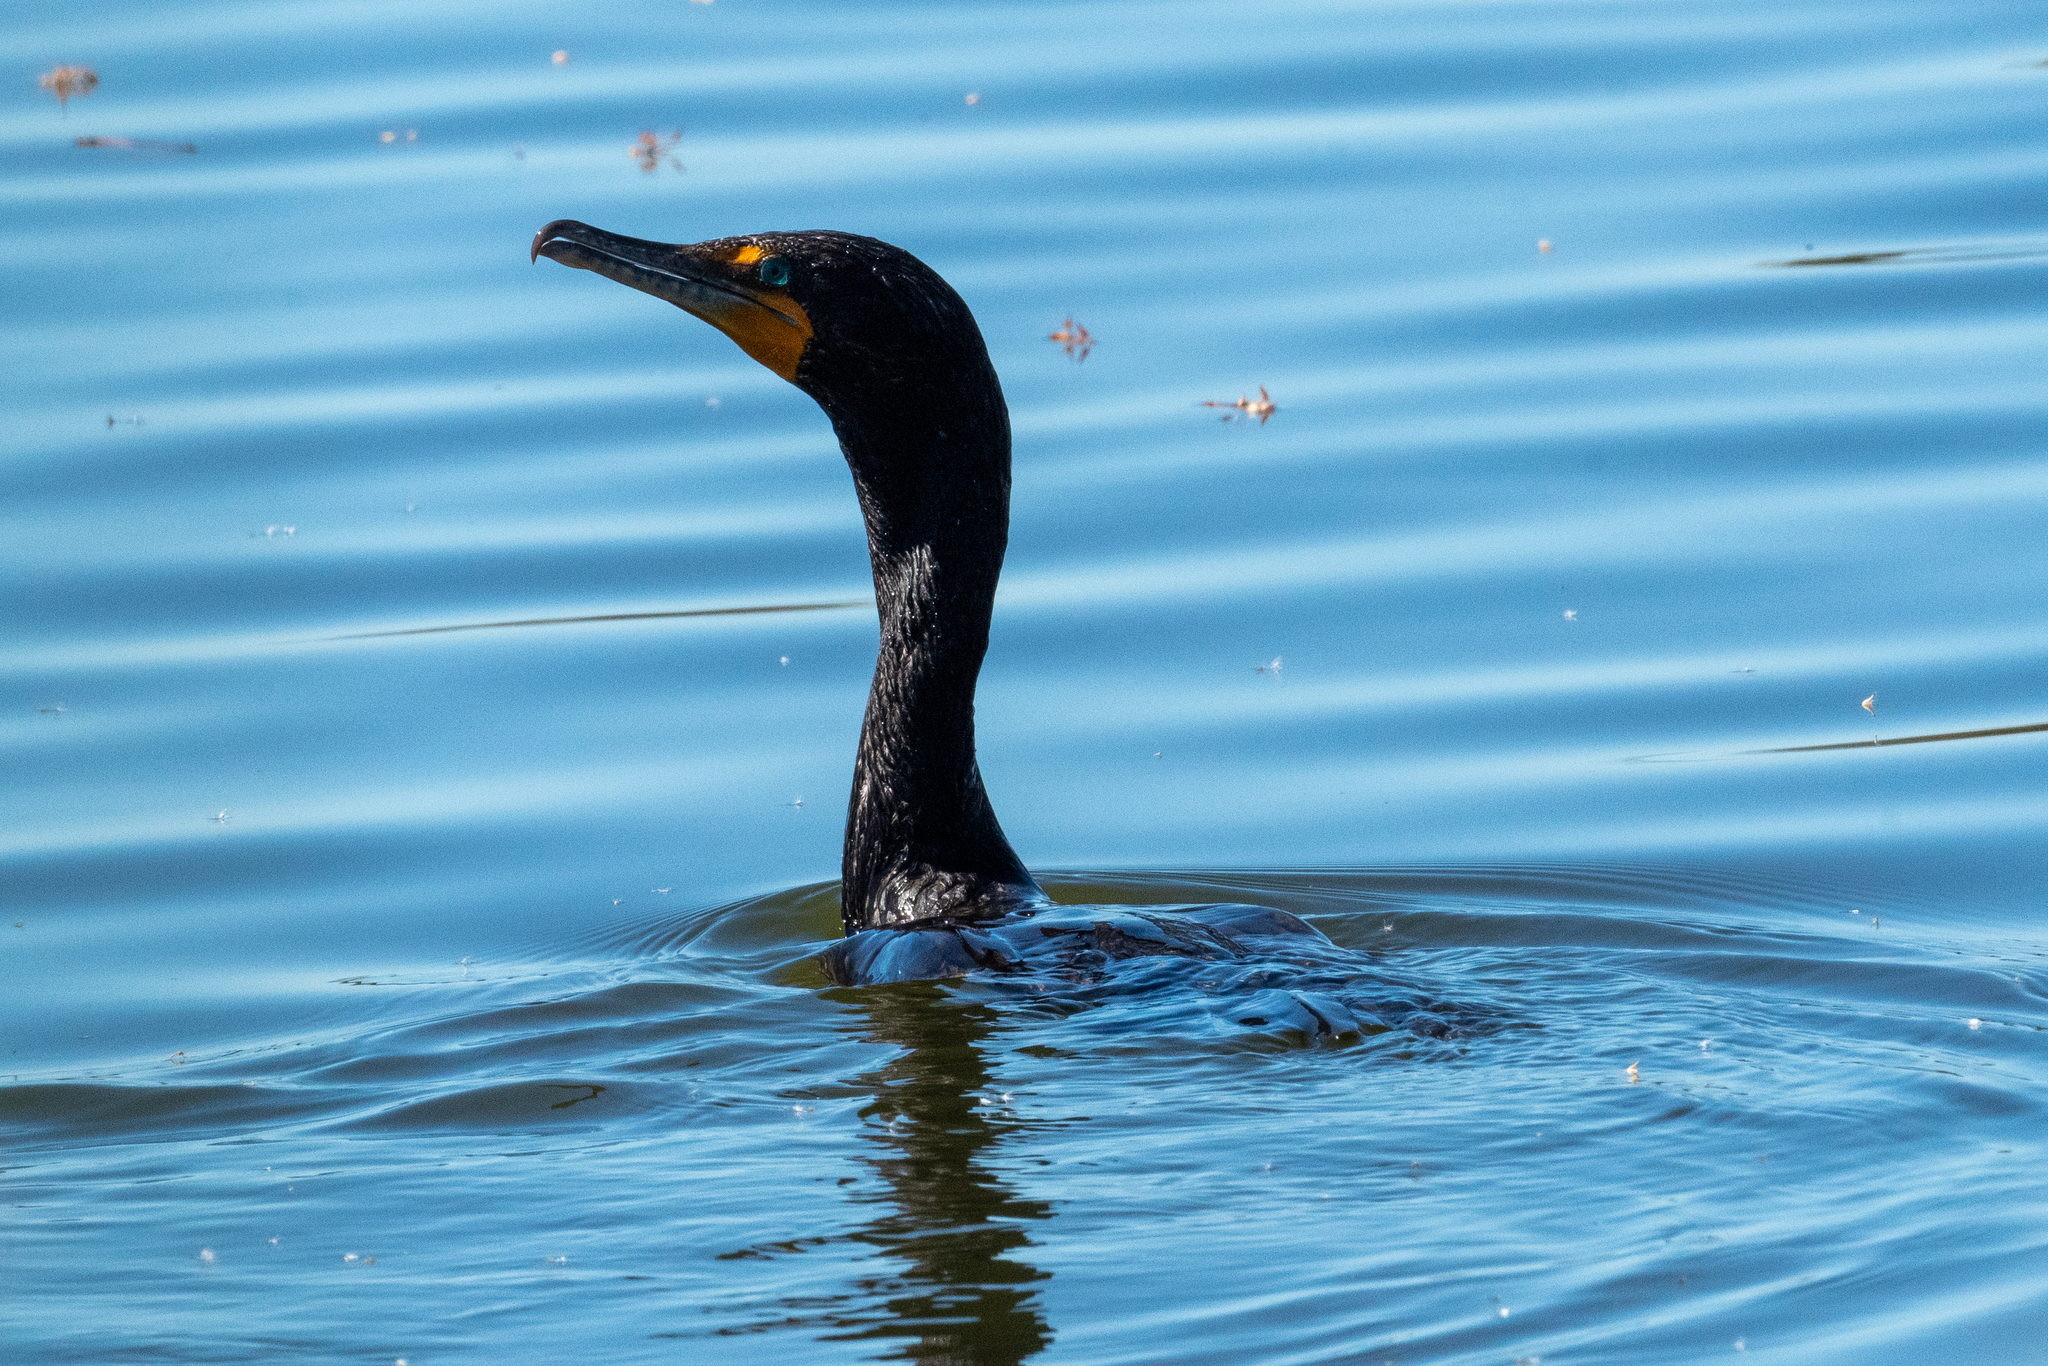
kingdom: Animalia
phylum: Chordata
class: Aves
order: Suliformes
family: Phalacrocoracidae
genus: Phalacrocorax
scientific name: Phalacrocorax auritus
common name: Double-crested cormorant
